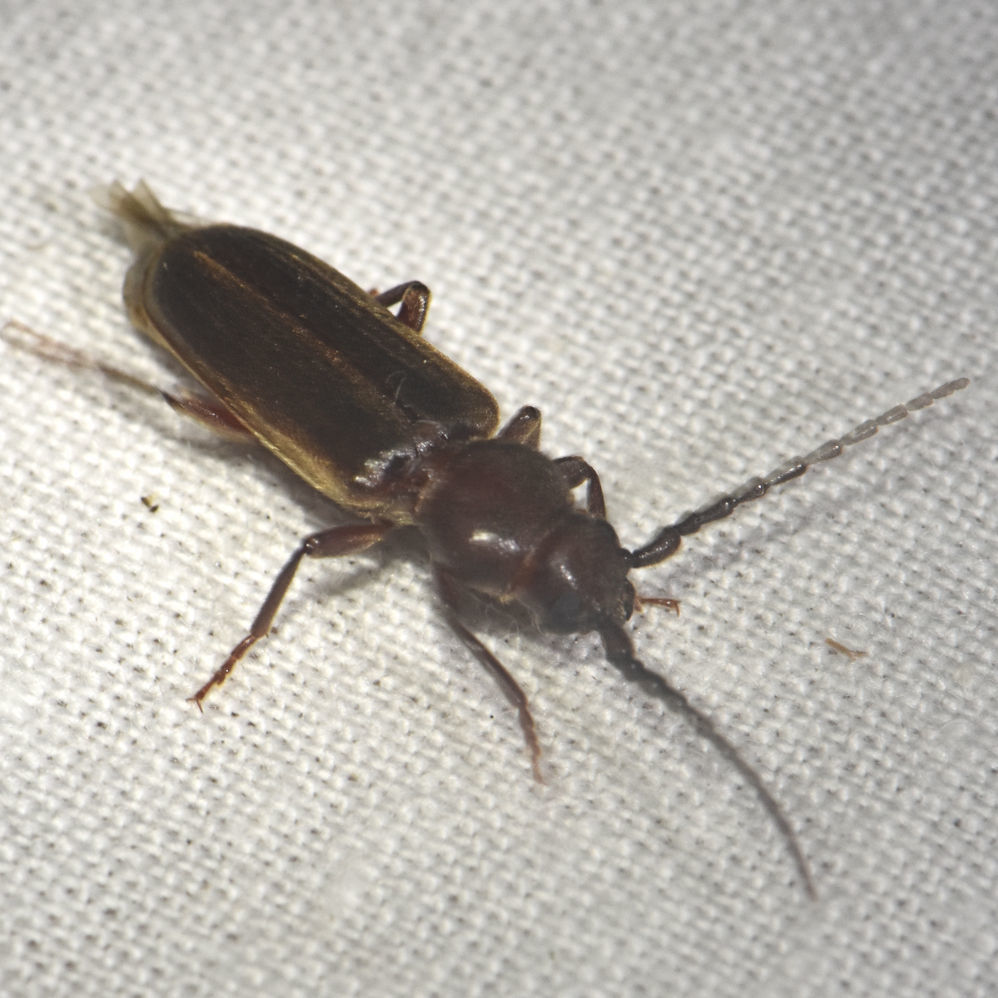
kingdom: Animalia
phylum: Arthropoda
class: Insecta
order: Coleoptera
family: Cerambycidae
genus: Asemum
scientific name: Asemum australe
